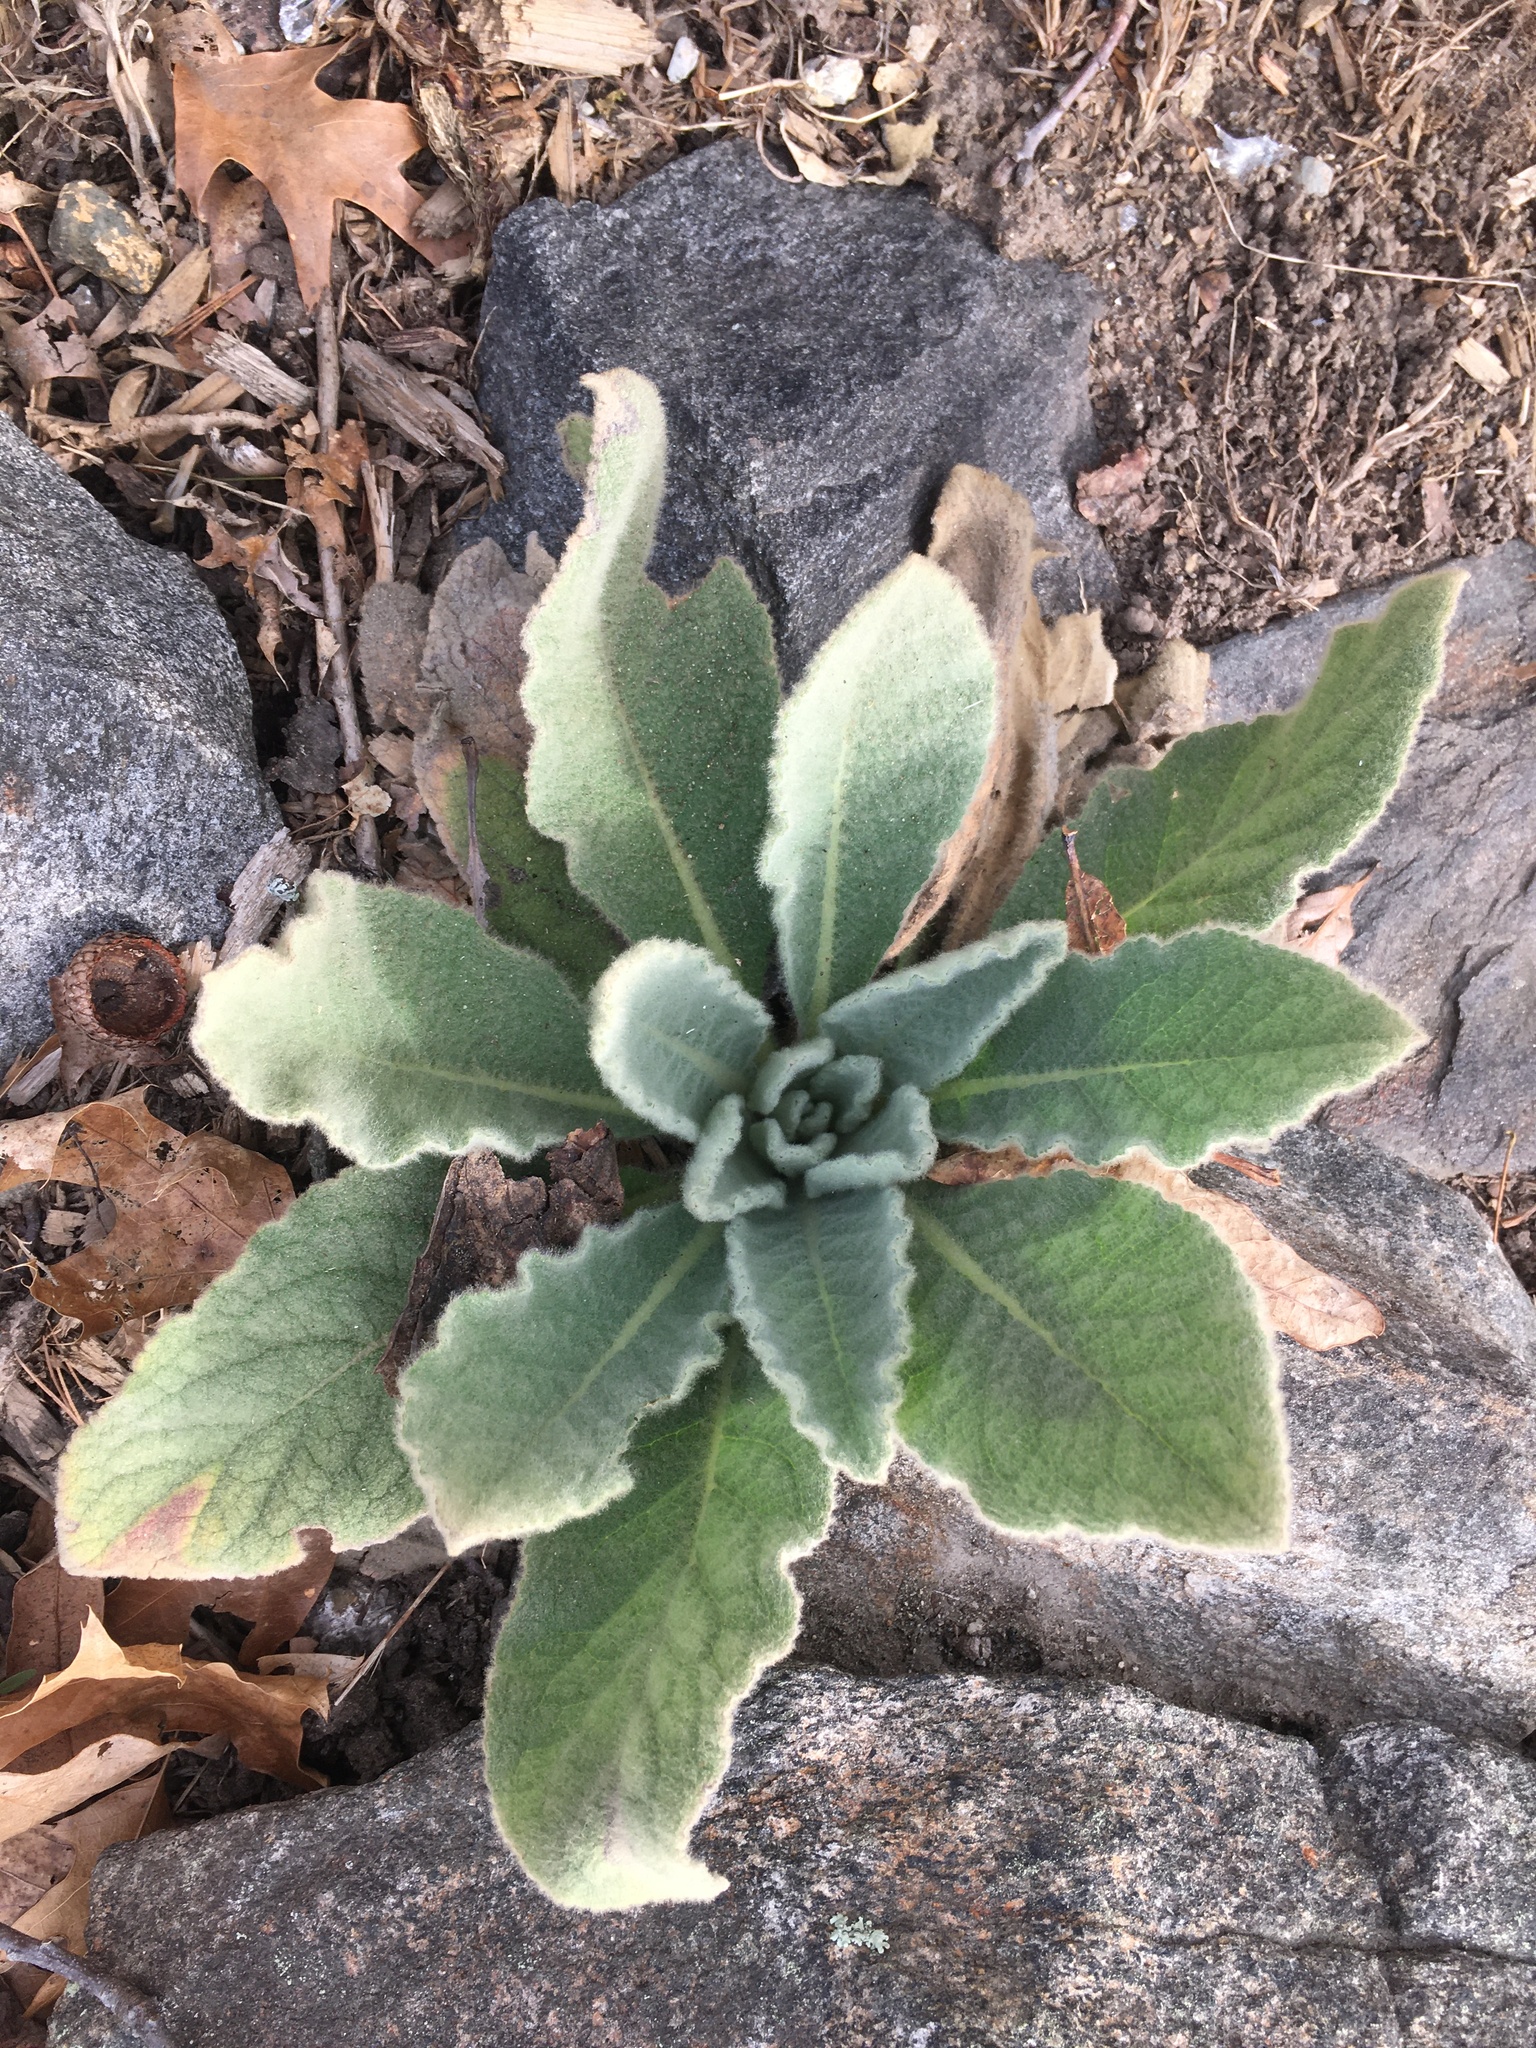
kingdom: Plantae
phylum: Tracheophyta
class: Magnoliopsida
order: Lamiales
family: Scrophulariaceae
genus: Verbascum
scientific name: Verbascum thapsus
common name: Common mullein
